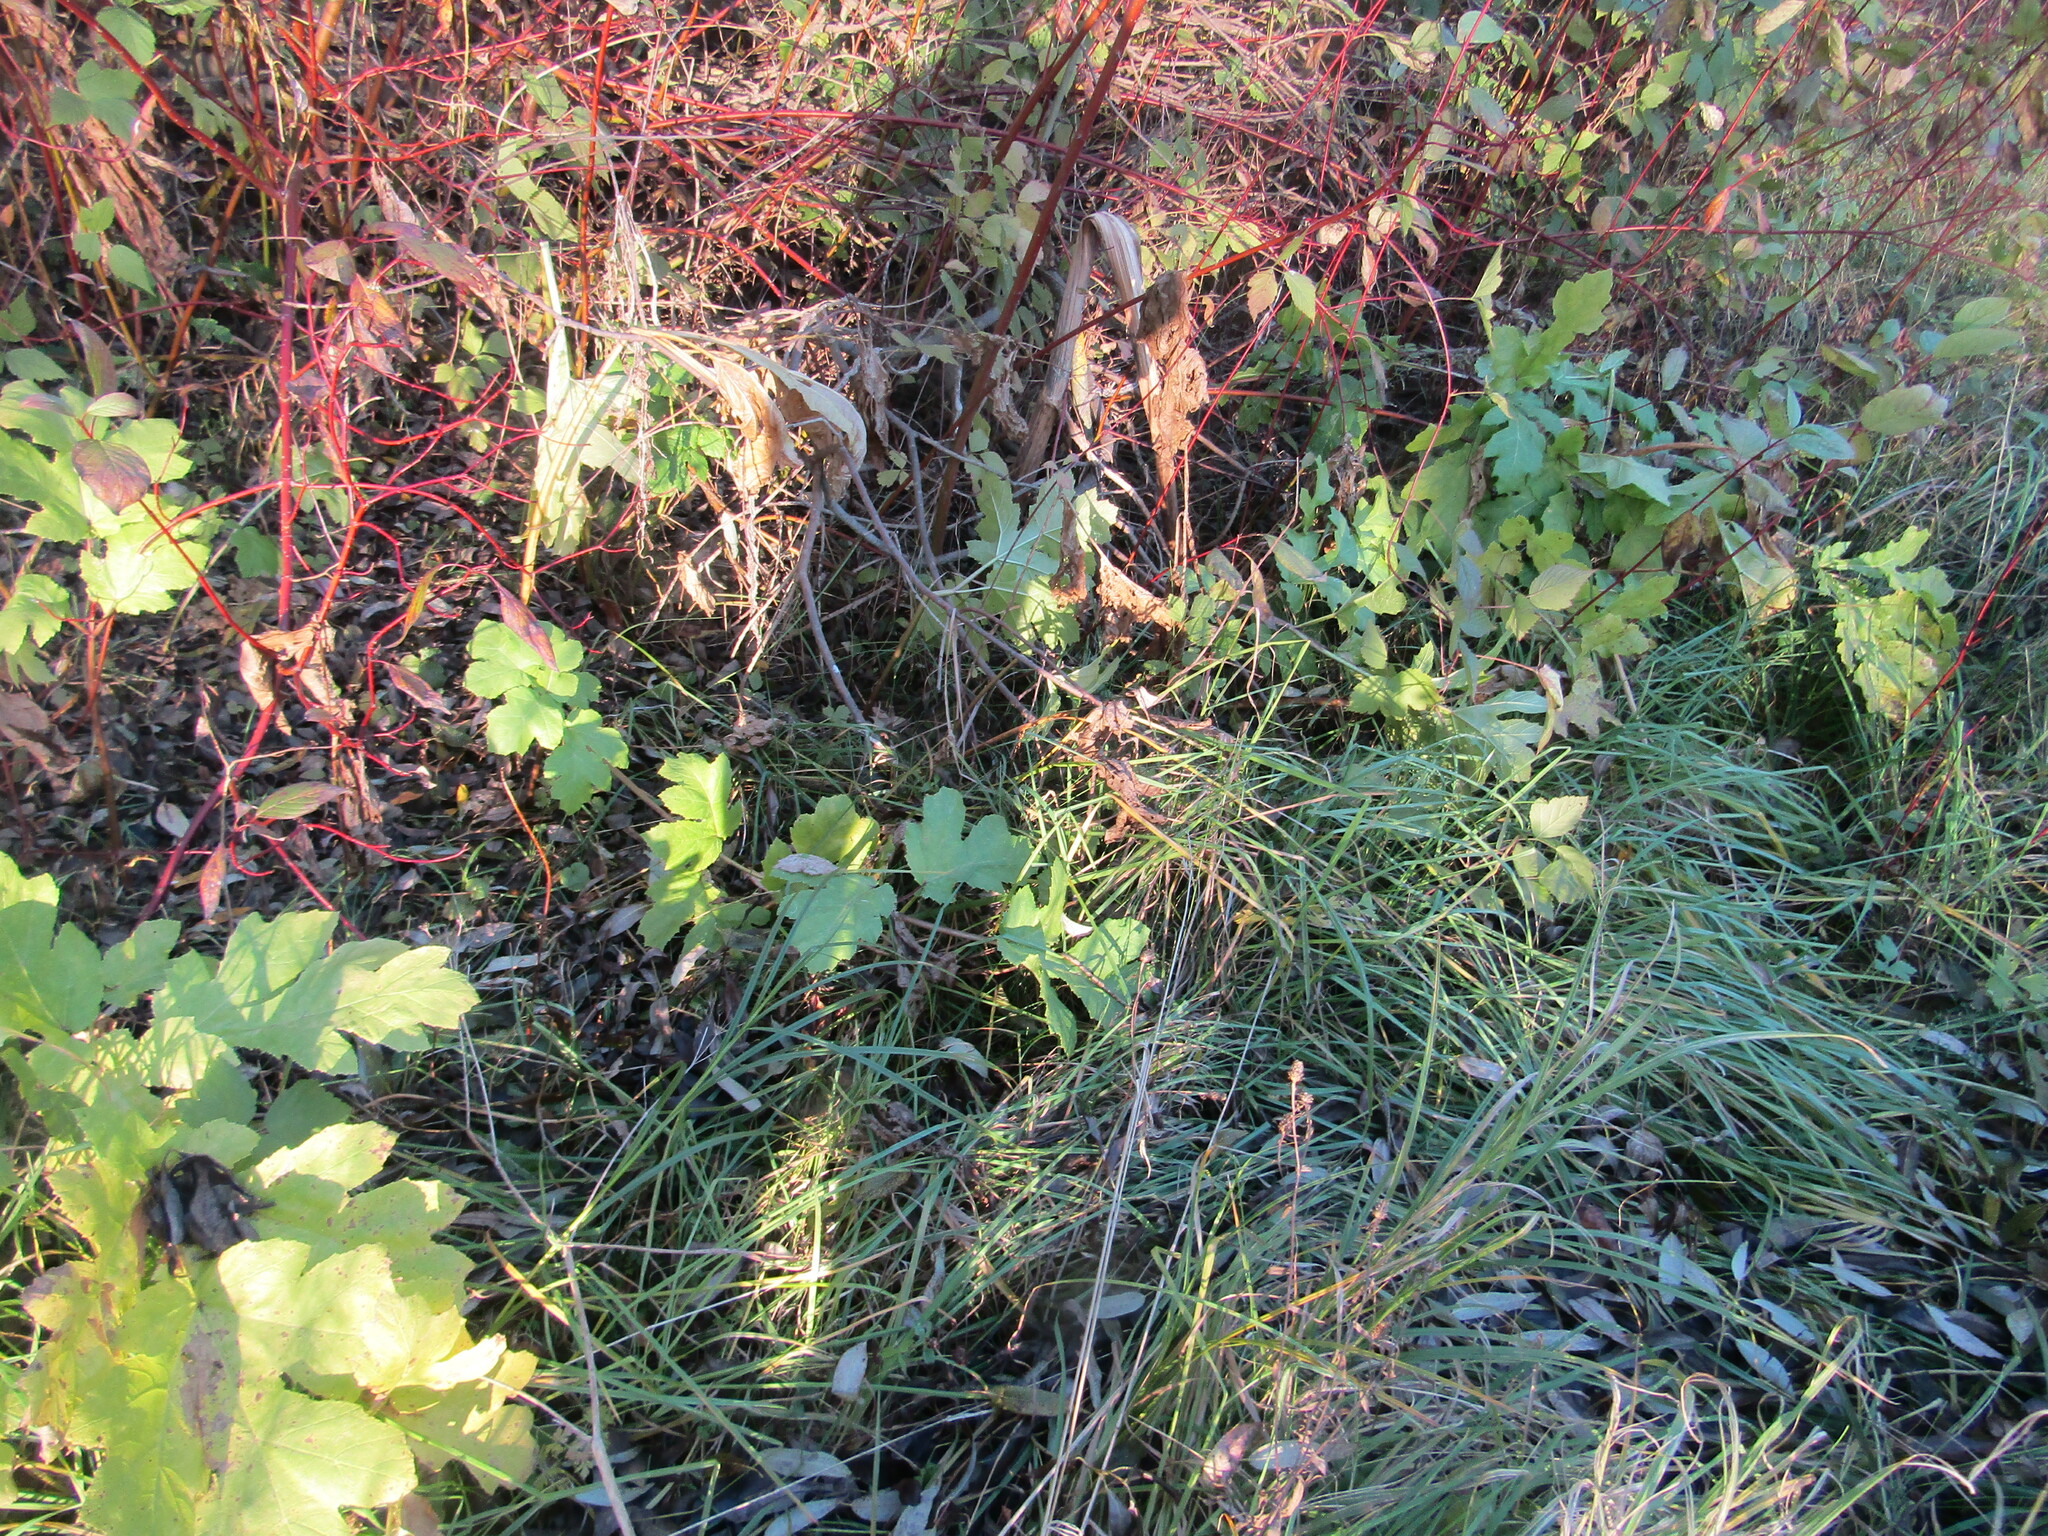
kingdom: Plantae
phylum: Tracheophyta
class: Magnoliopsida
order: Apiales
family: Apiaceae
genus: Heracleum
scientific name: Heracleum sosnowskyi
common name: Sosnowsky's hogweed
